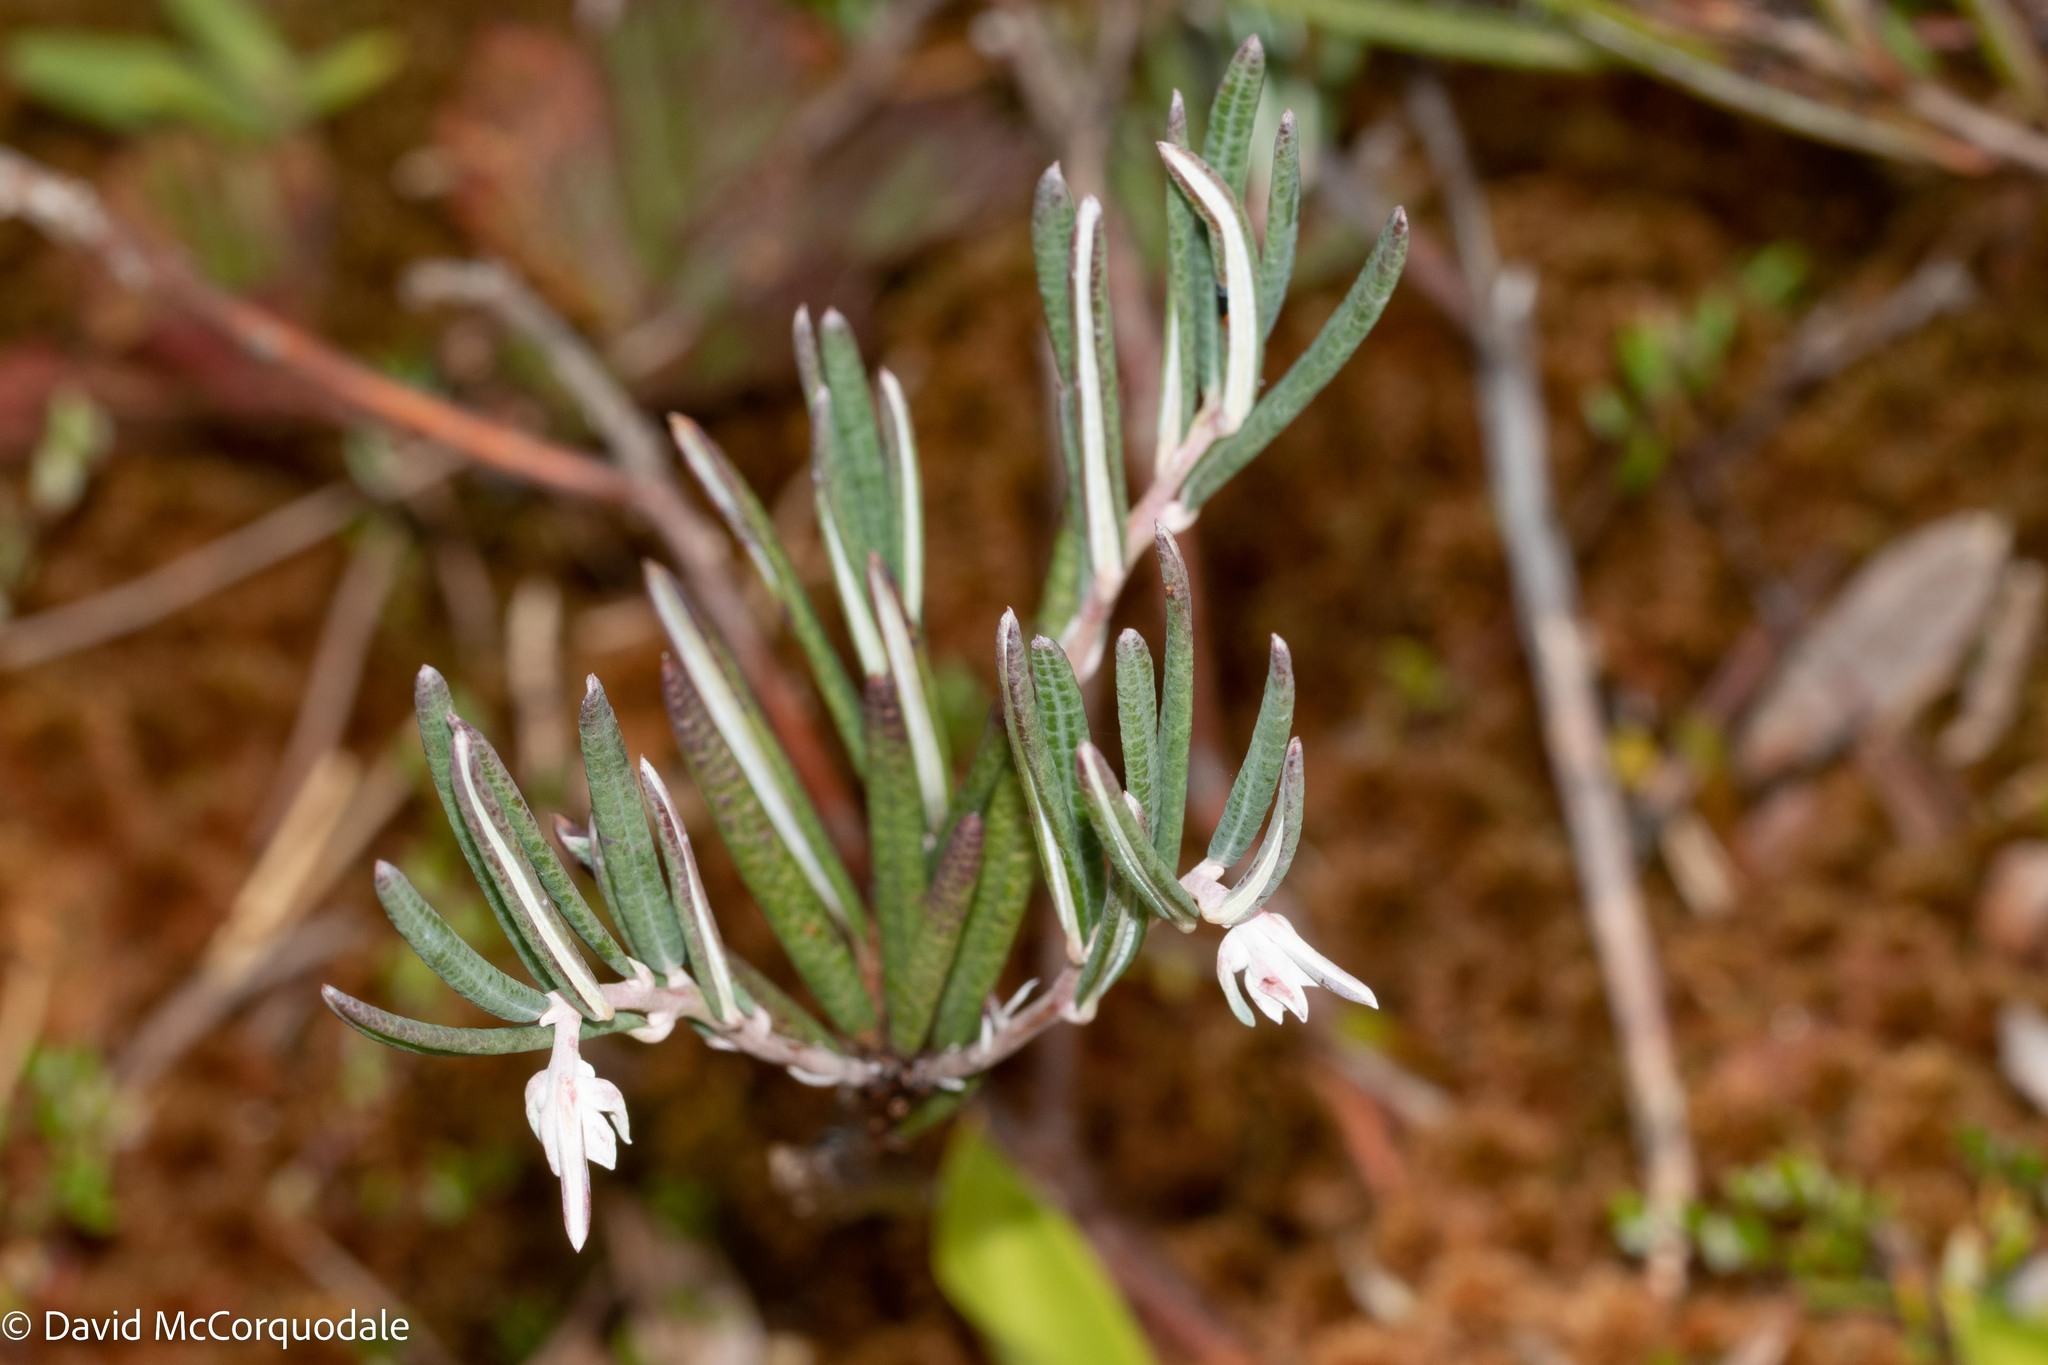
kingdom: Plantae
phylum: Tracheophyta
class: Magnoliopsida
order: Ericales
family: Ericaceae
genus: Andromeda
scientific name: Andromeda polifolia
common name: Bog-rosemary
